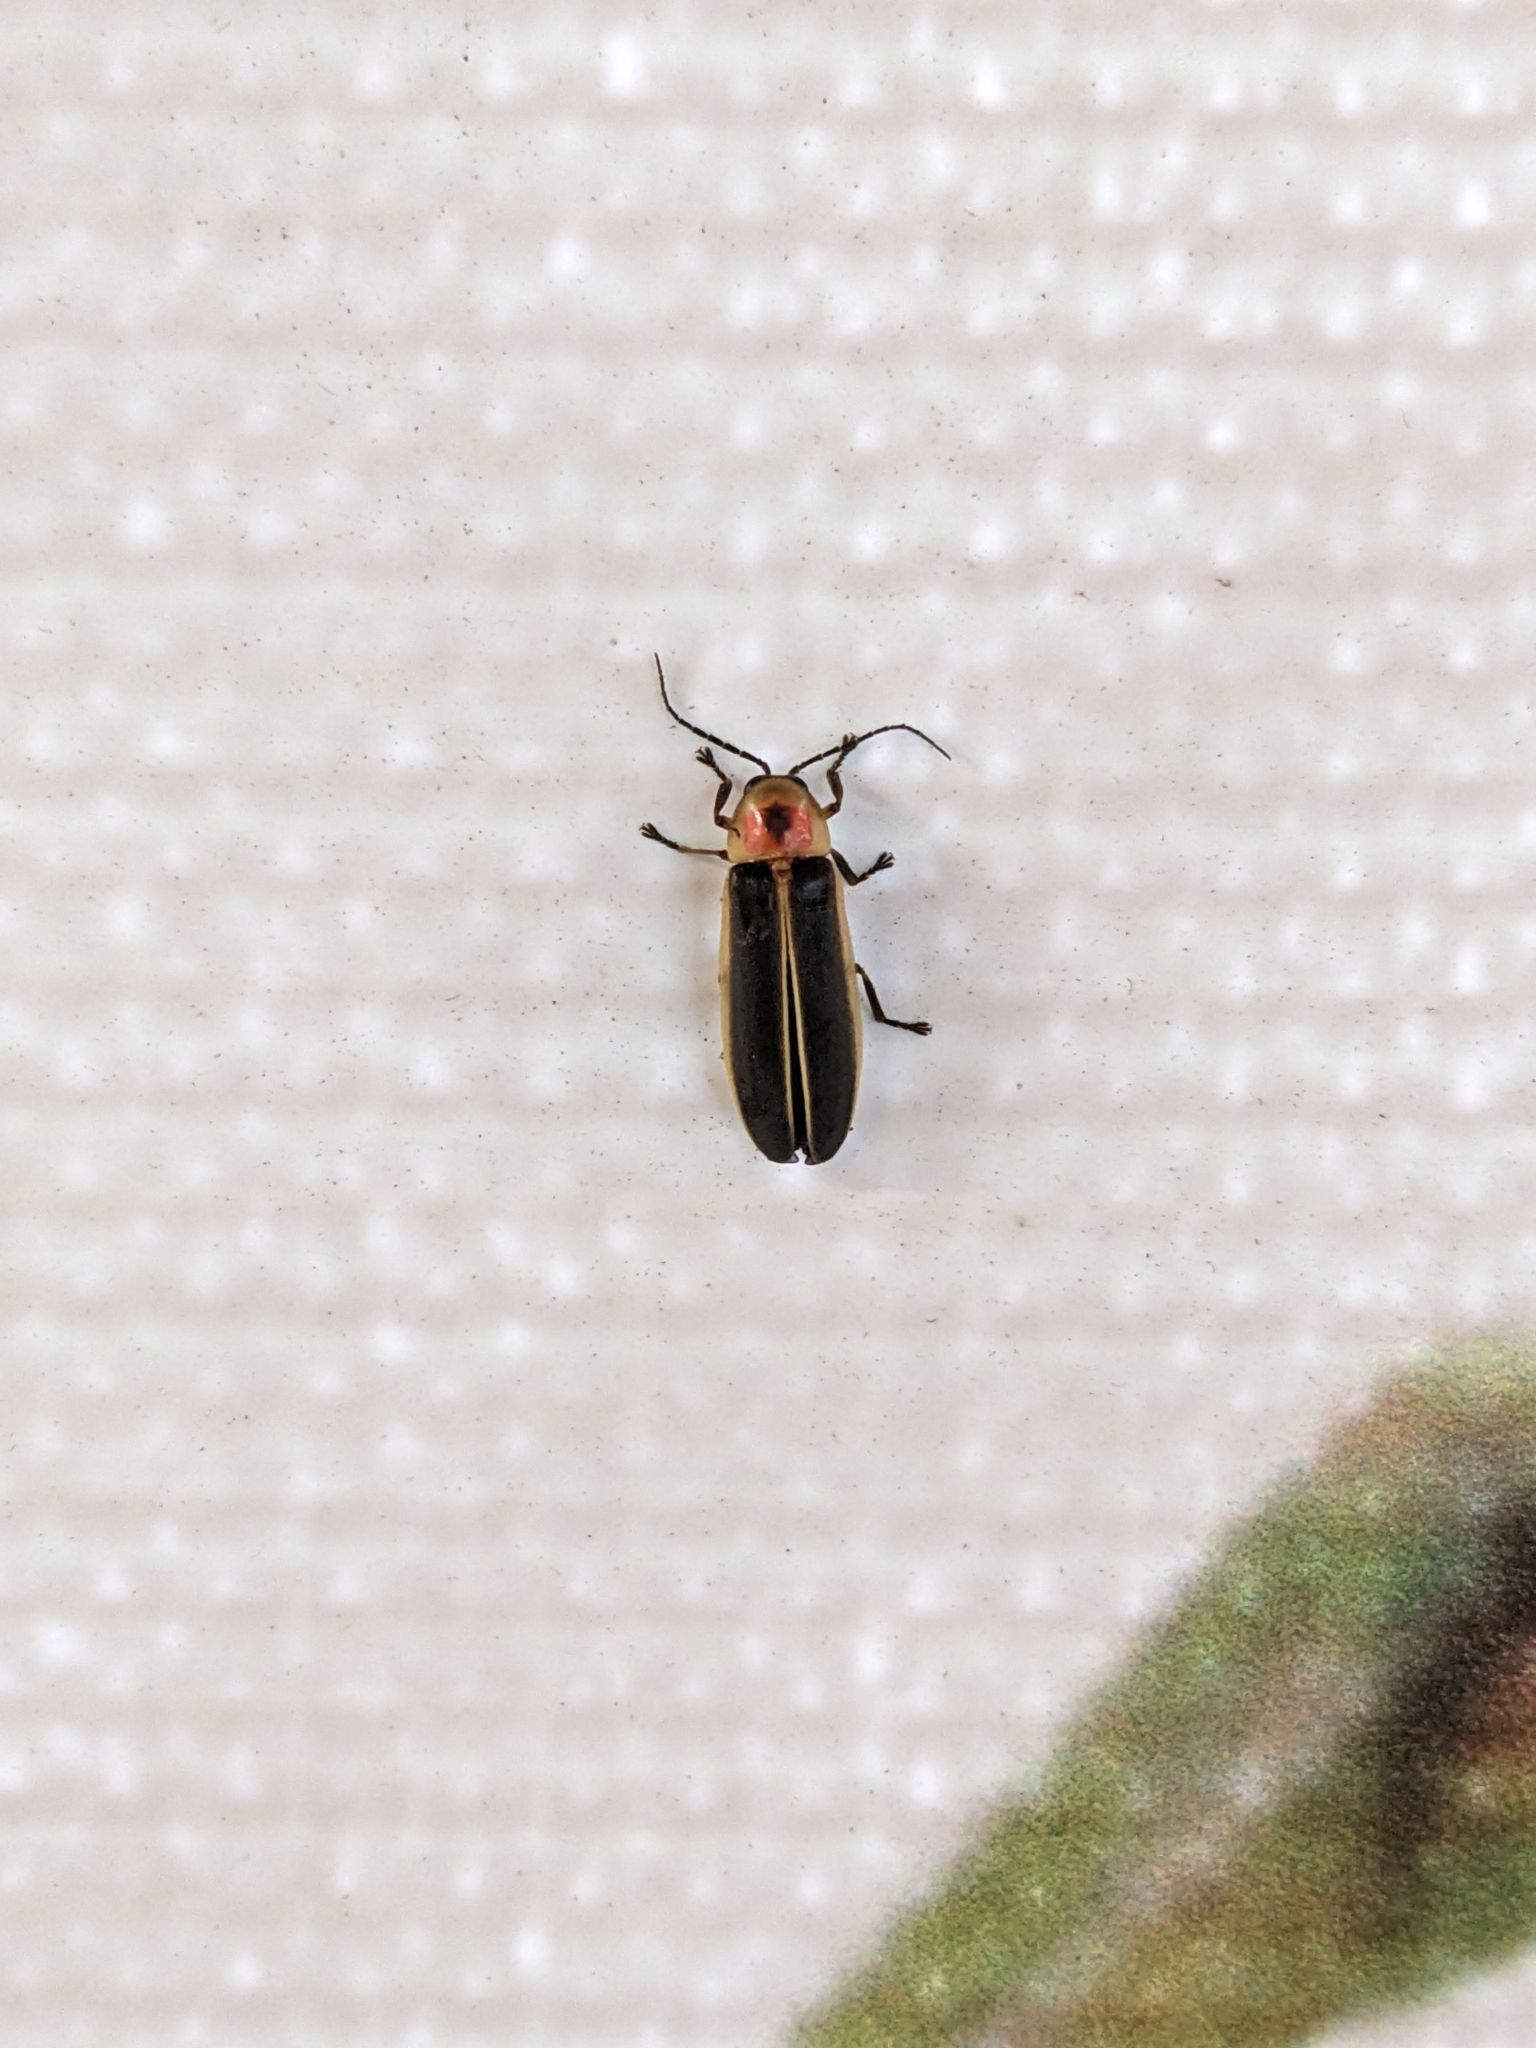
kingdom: Animalia
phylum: Arthropoda
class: Insecta
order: Coleoptera
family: Lampyridae
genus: Photinus
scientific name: Photinus pyralis
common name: Big dipper firefly
